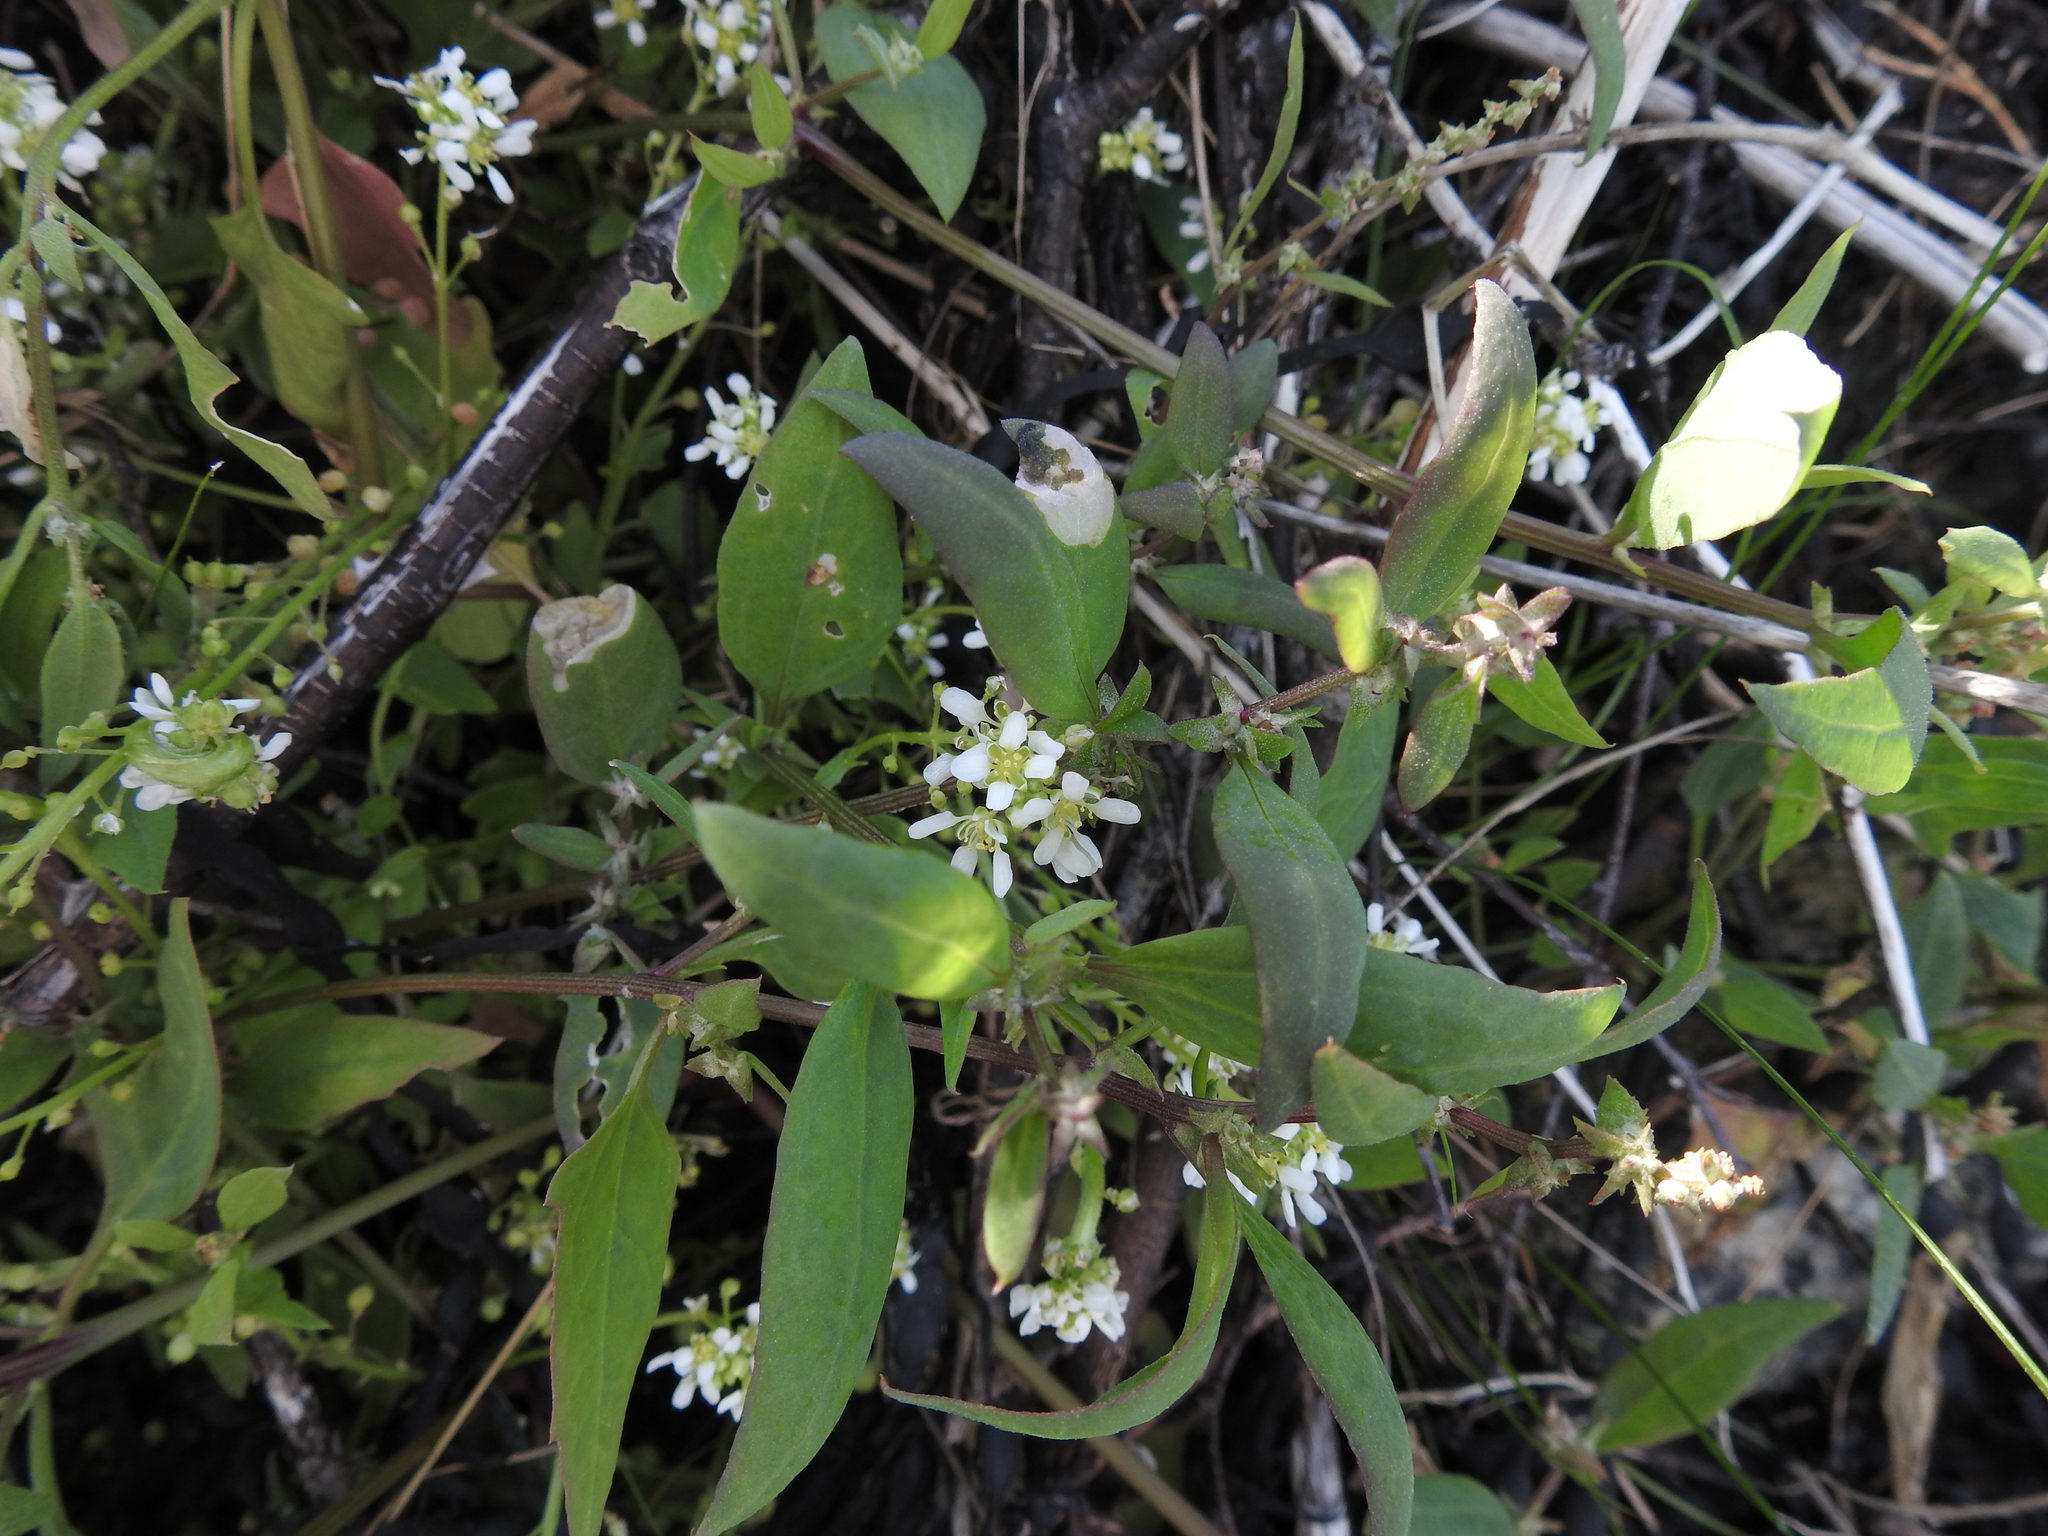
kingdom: Plantae
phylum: Tracheophyta
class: Magnoliopsida
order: Brassicales
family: Brassicaceae
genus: Cochlearia
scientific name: Cochlearia officinalis
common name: Scurvy-grass
